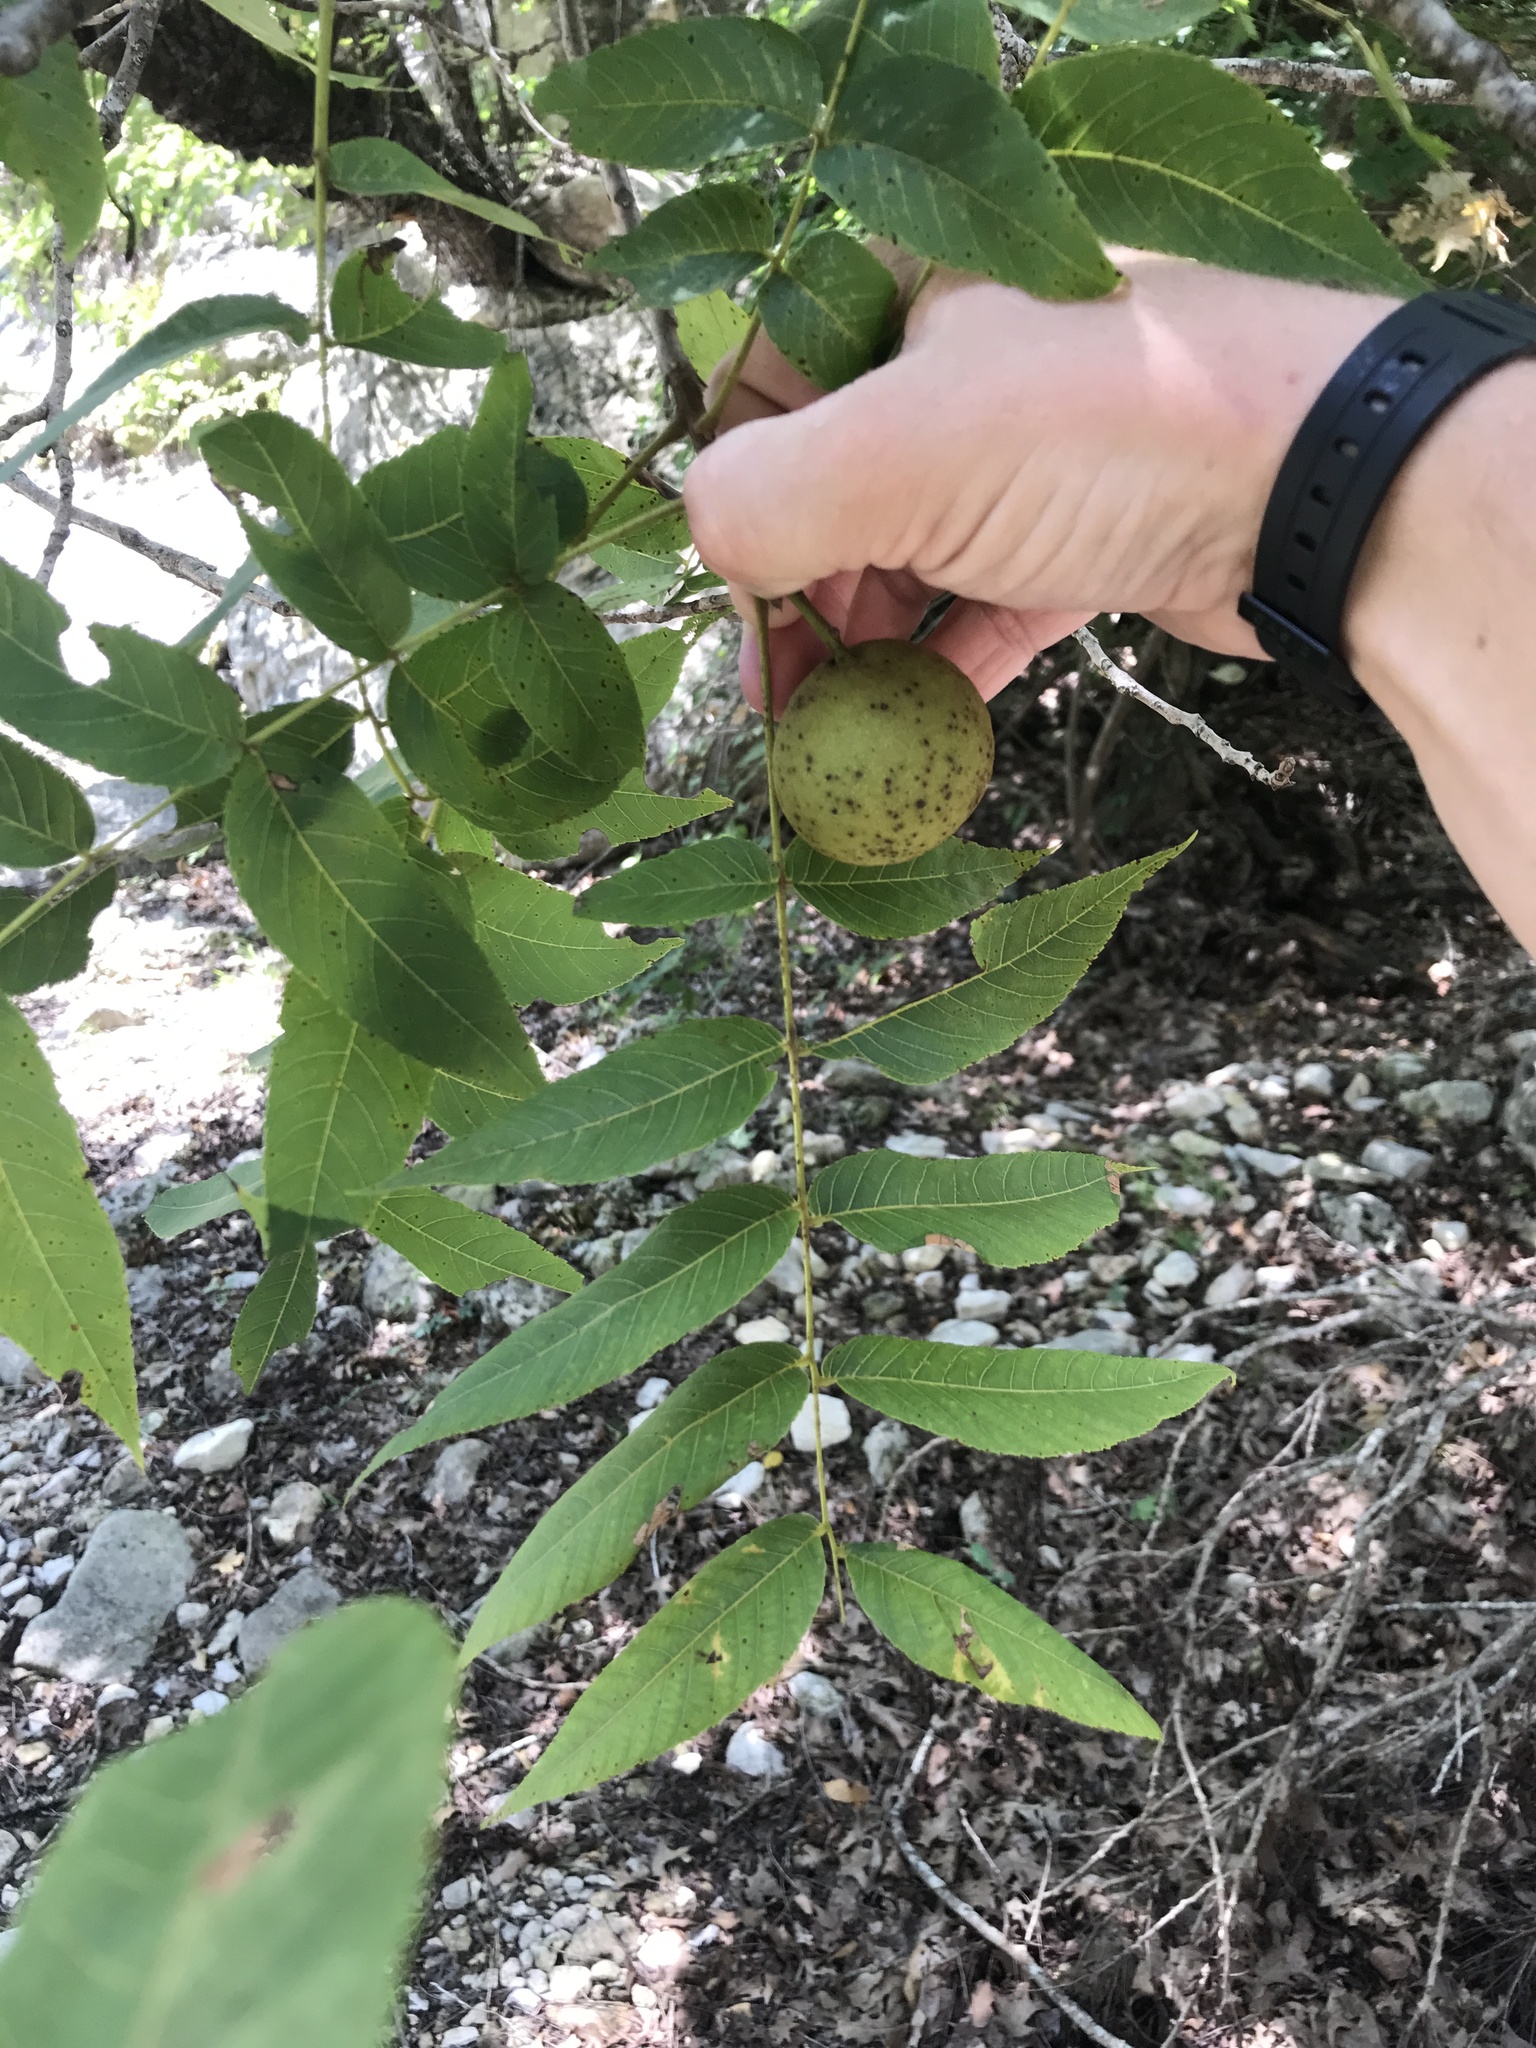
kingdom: Plantae
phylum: Tracheophyta
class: Magnoliopsida
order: Fagales
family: Juglandaceae
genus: Juglans
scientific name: Juglans major
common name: Arizona walnut
